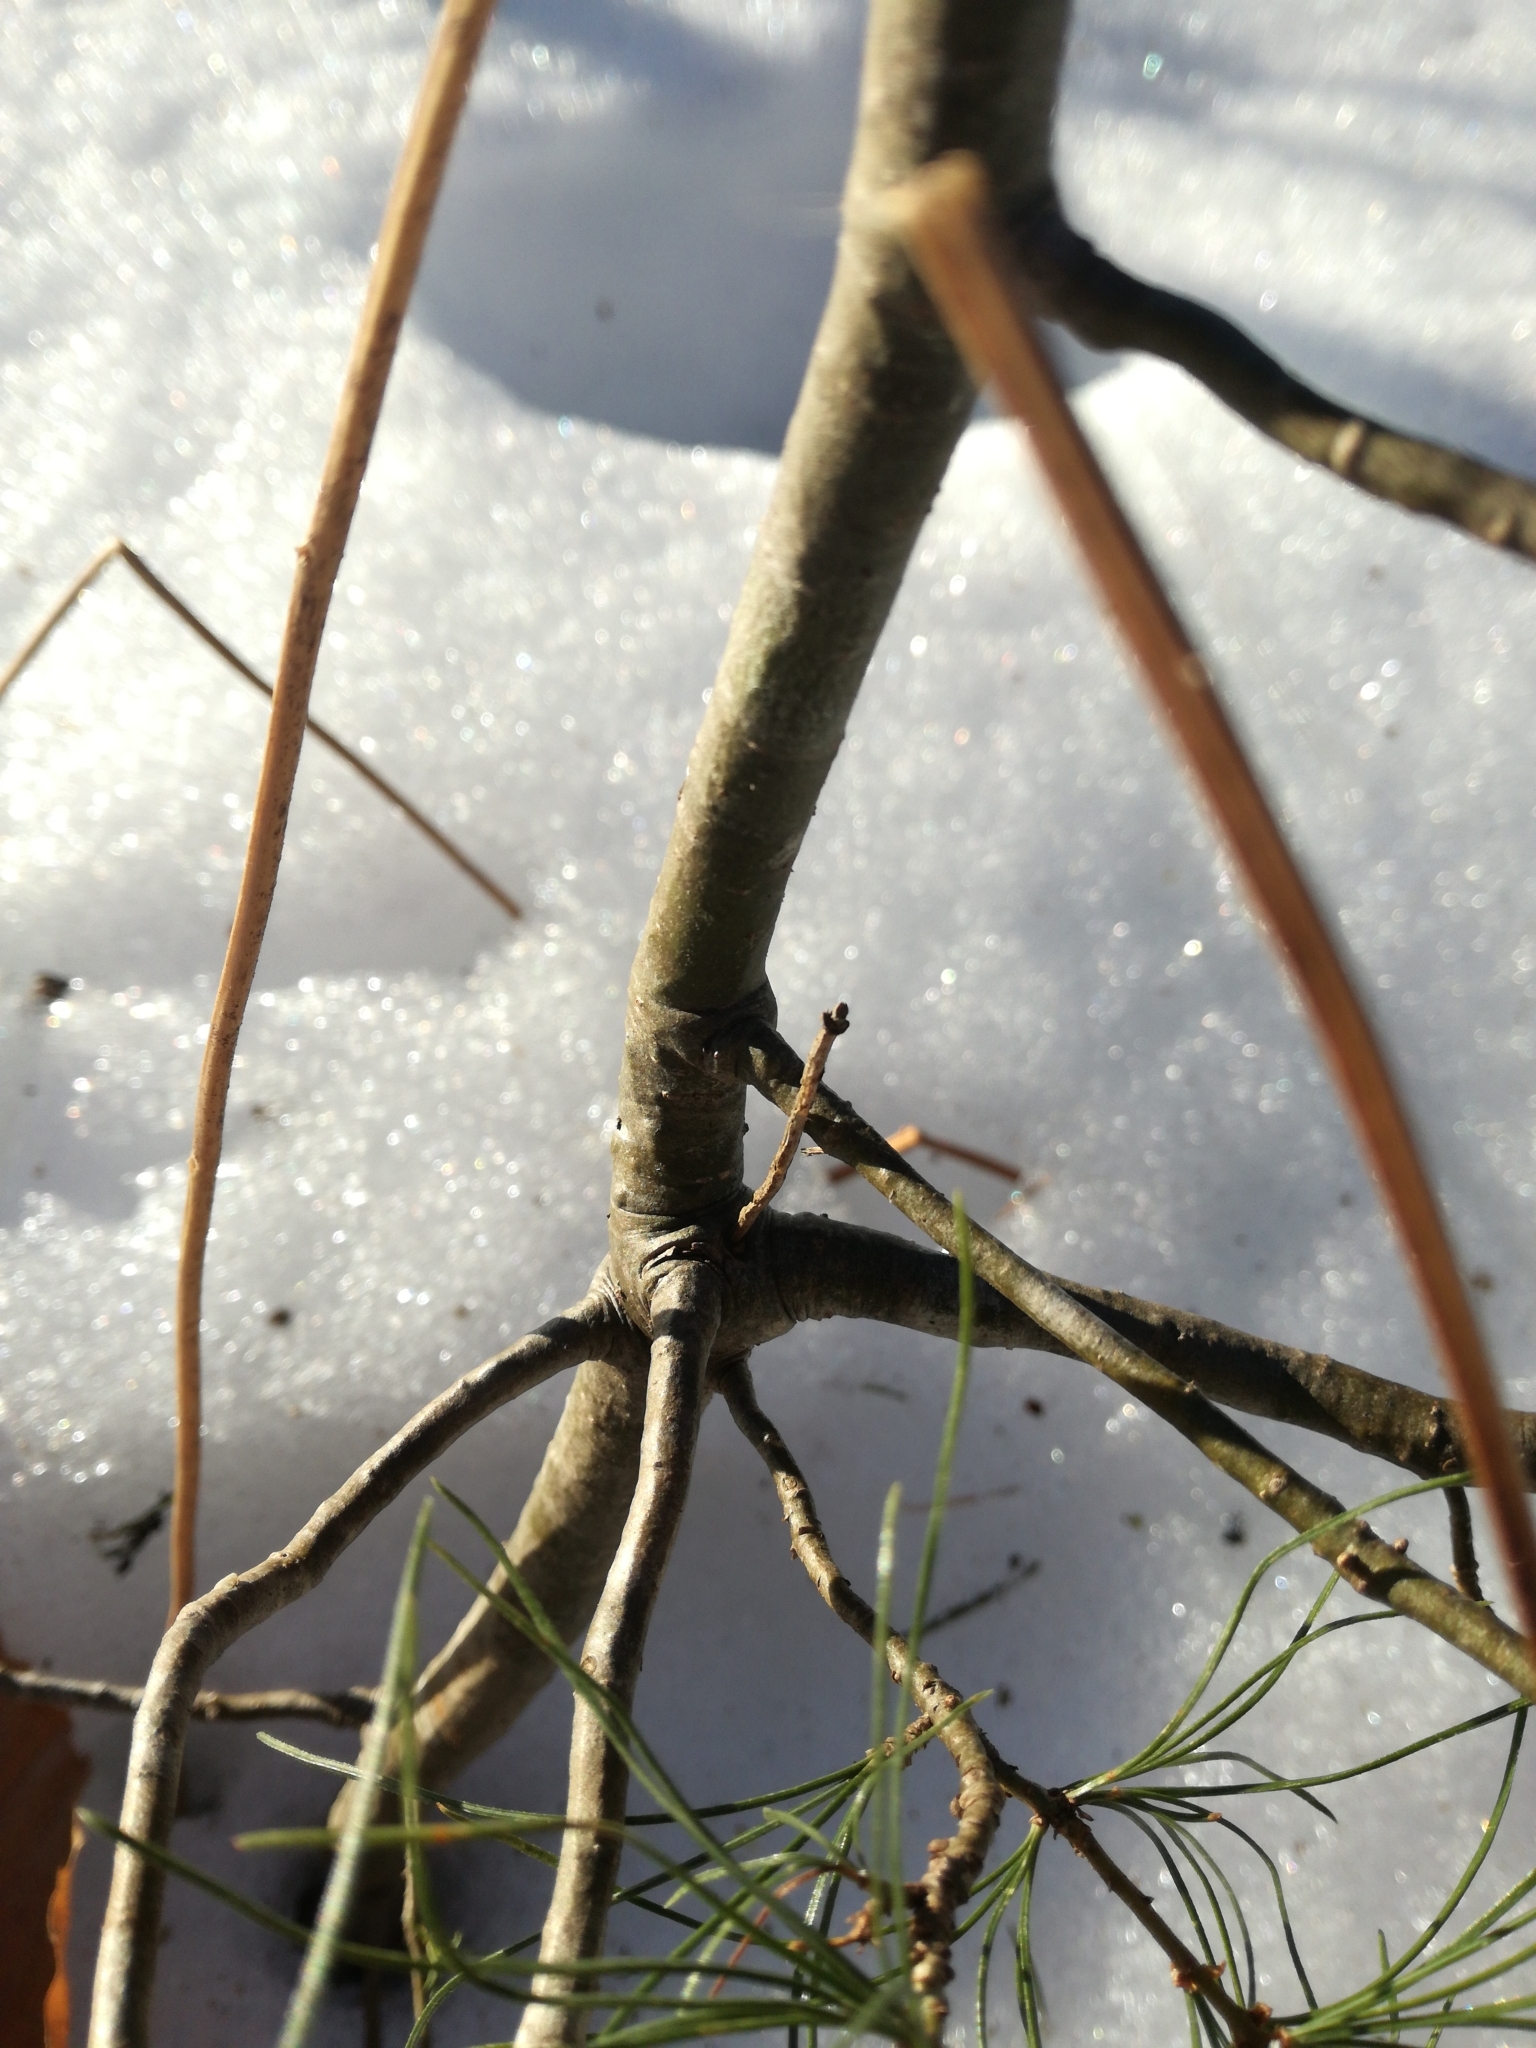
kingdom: Plantae
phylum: Tracheophyta
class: Pinopsida
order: Pinales
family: Pinaceae
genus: Pinus
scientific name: Pinus strobus
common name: Weymouth pine
